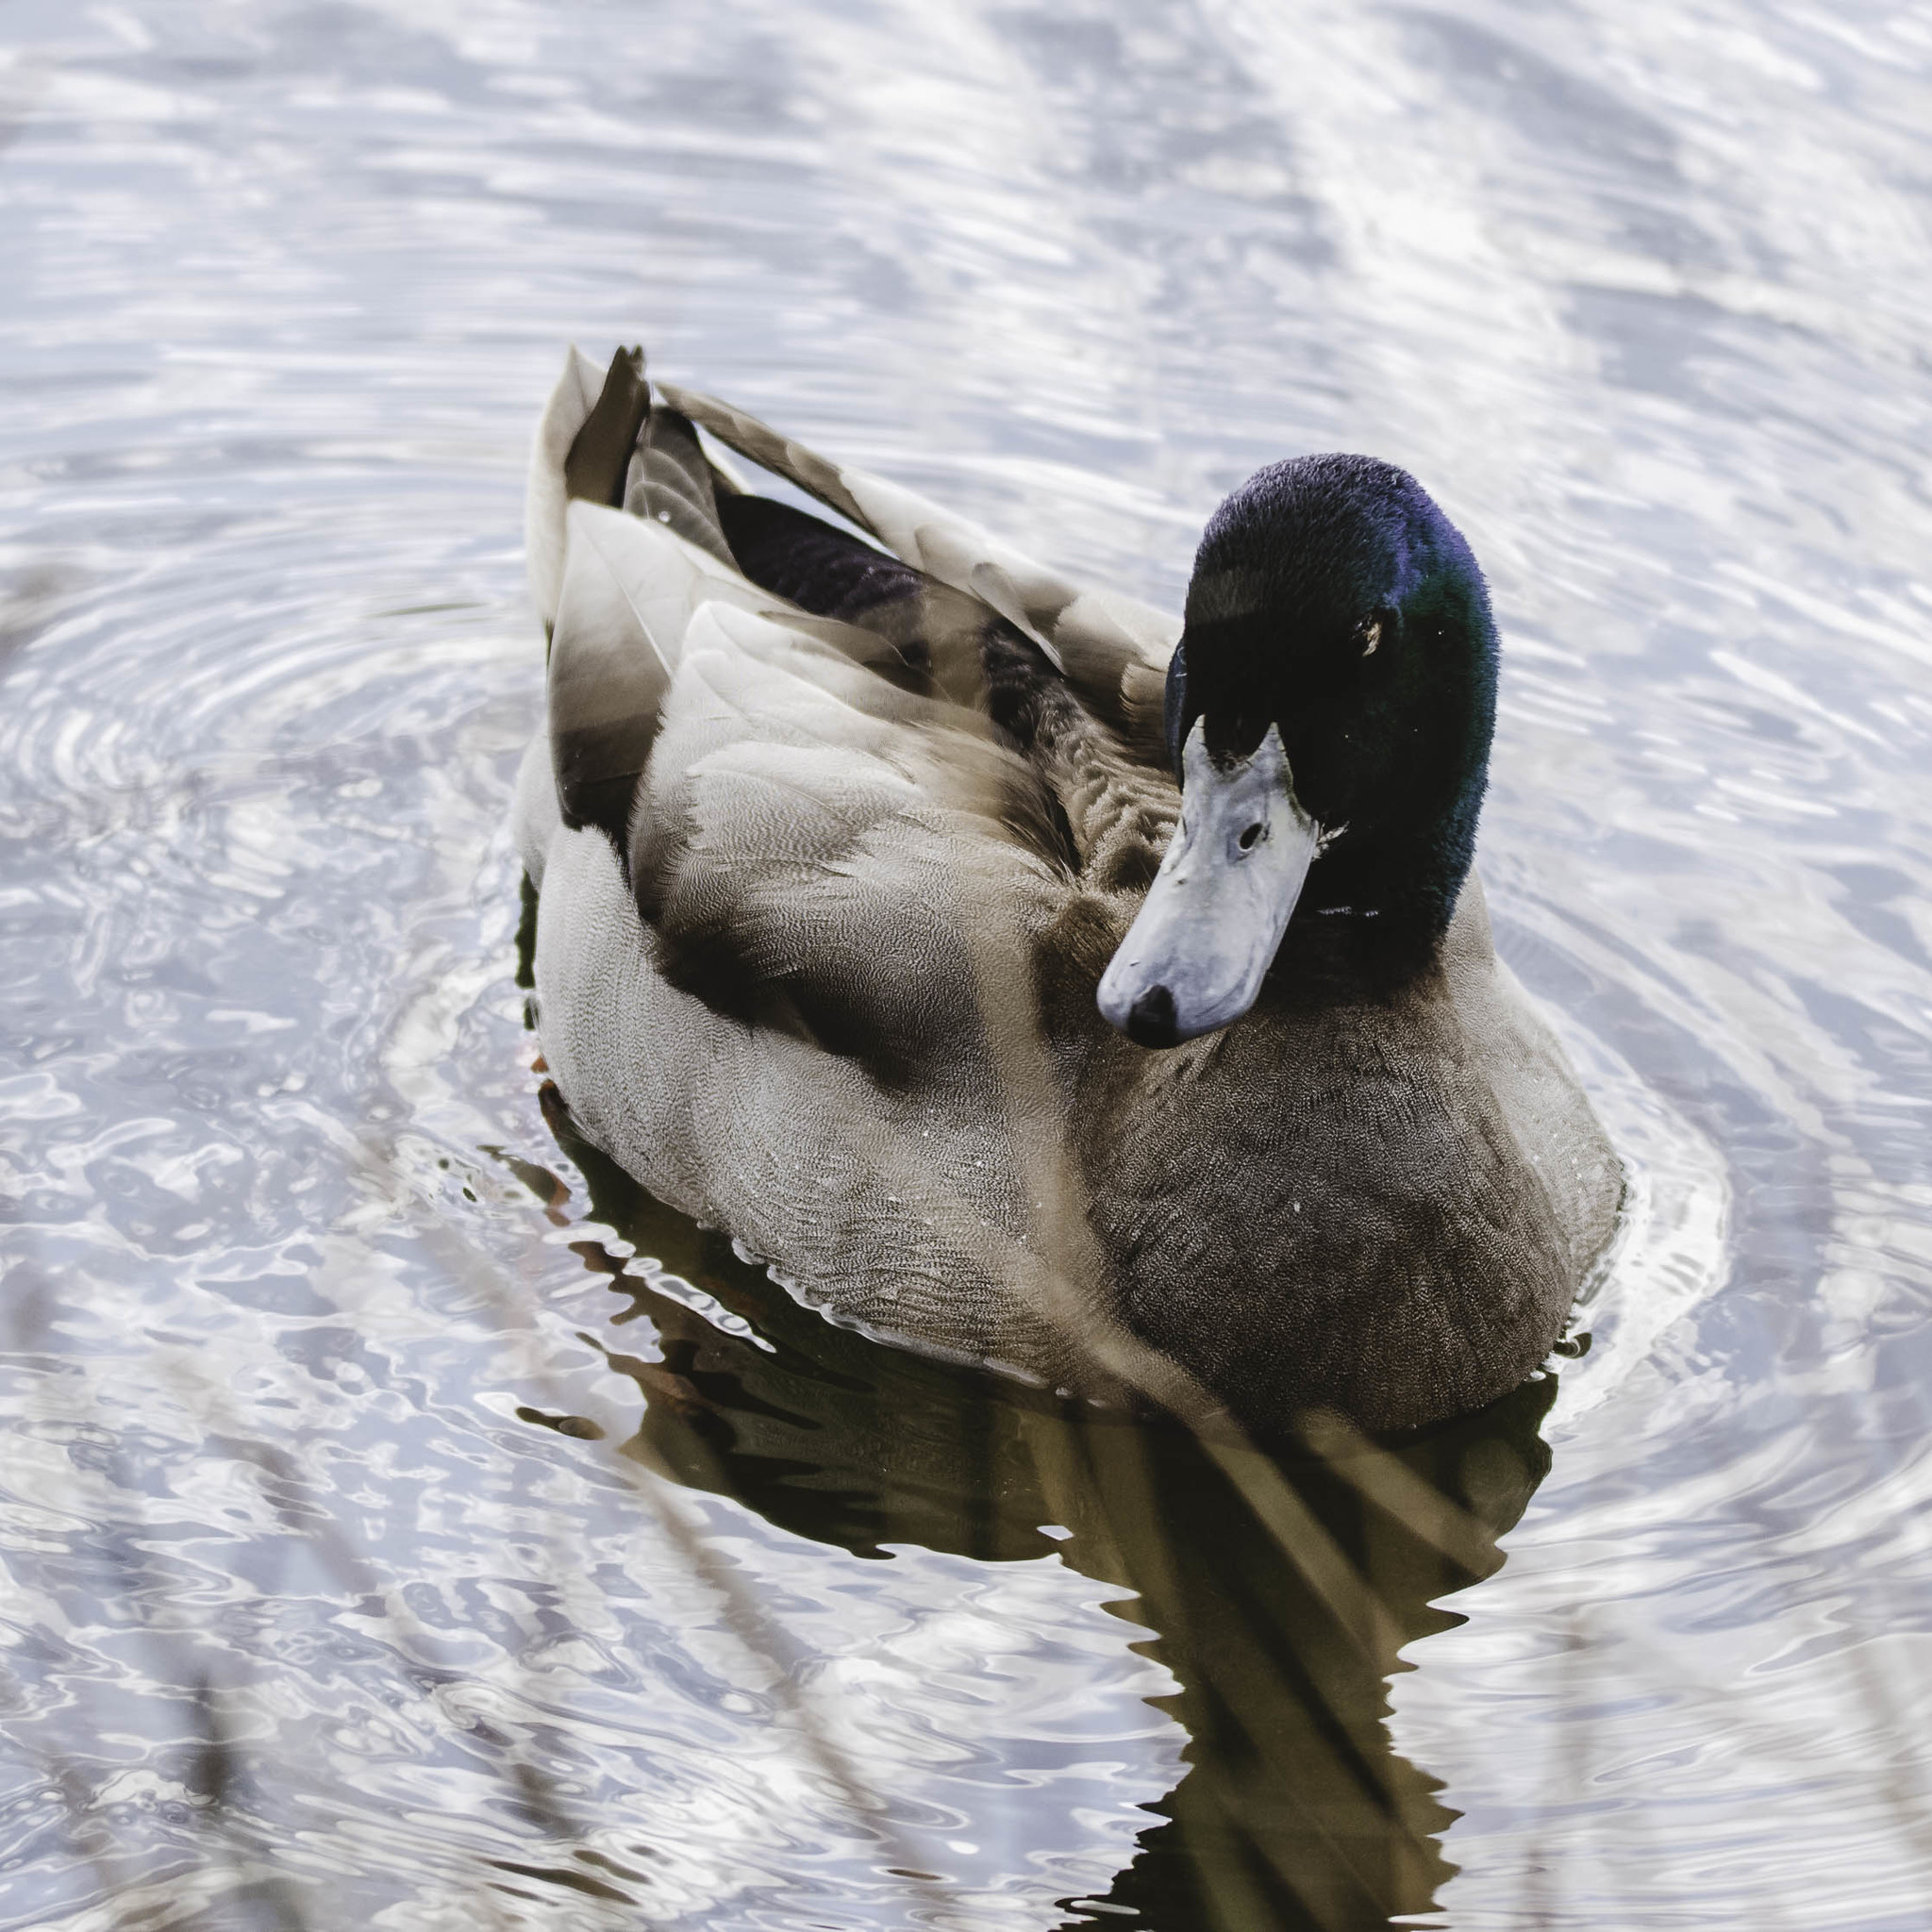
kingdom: Animalia
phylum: Chordata
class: Aves
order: Anseriformes
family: Anatidae
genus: Anas
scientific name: Anas platyrhynchos
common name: Mallard
